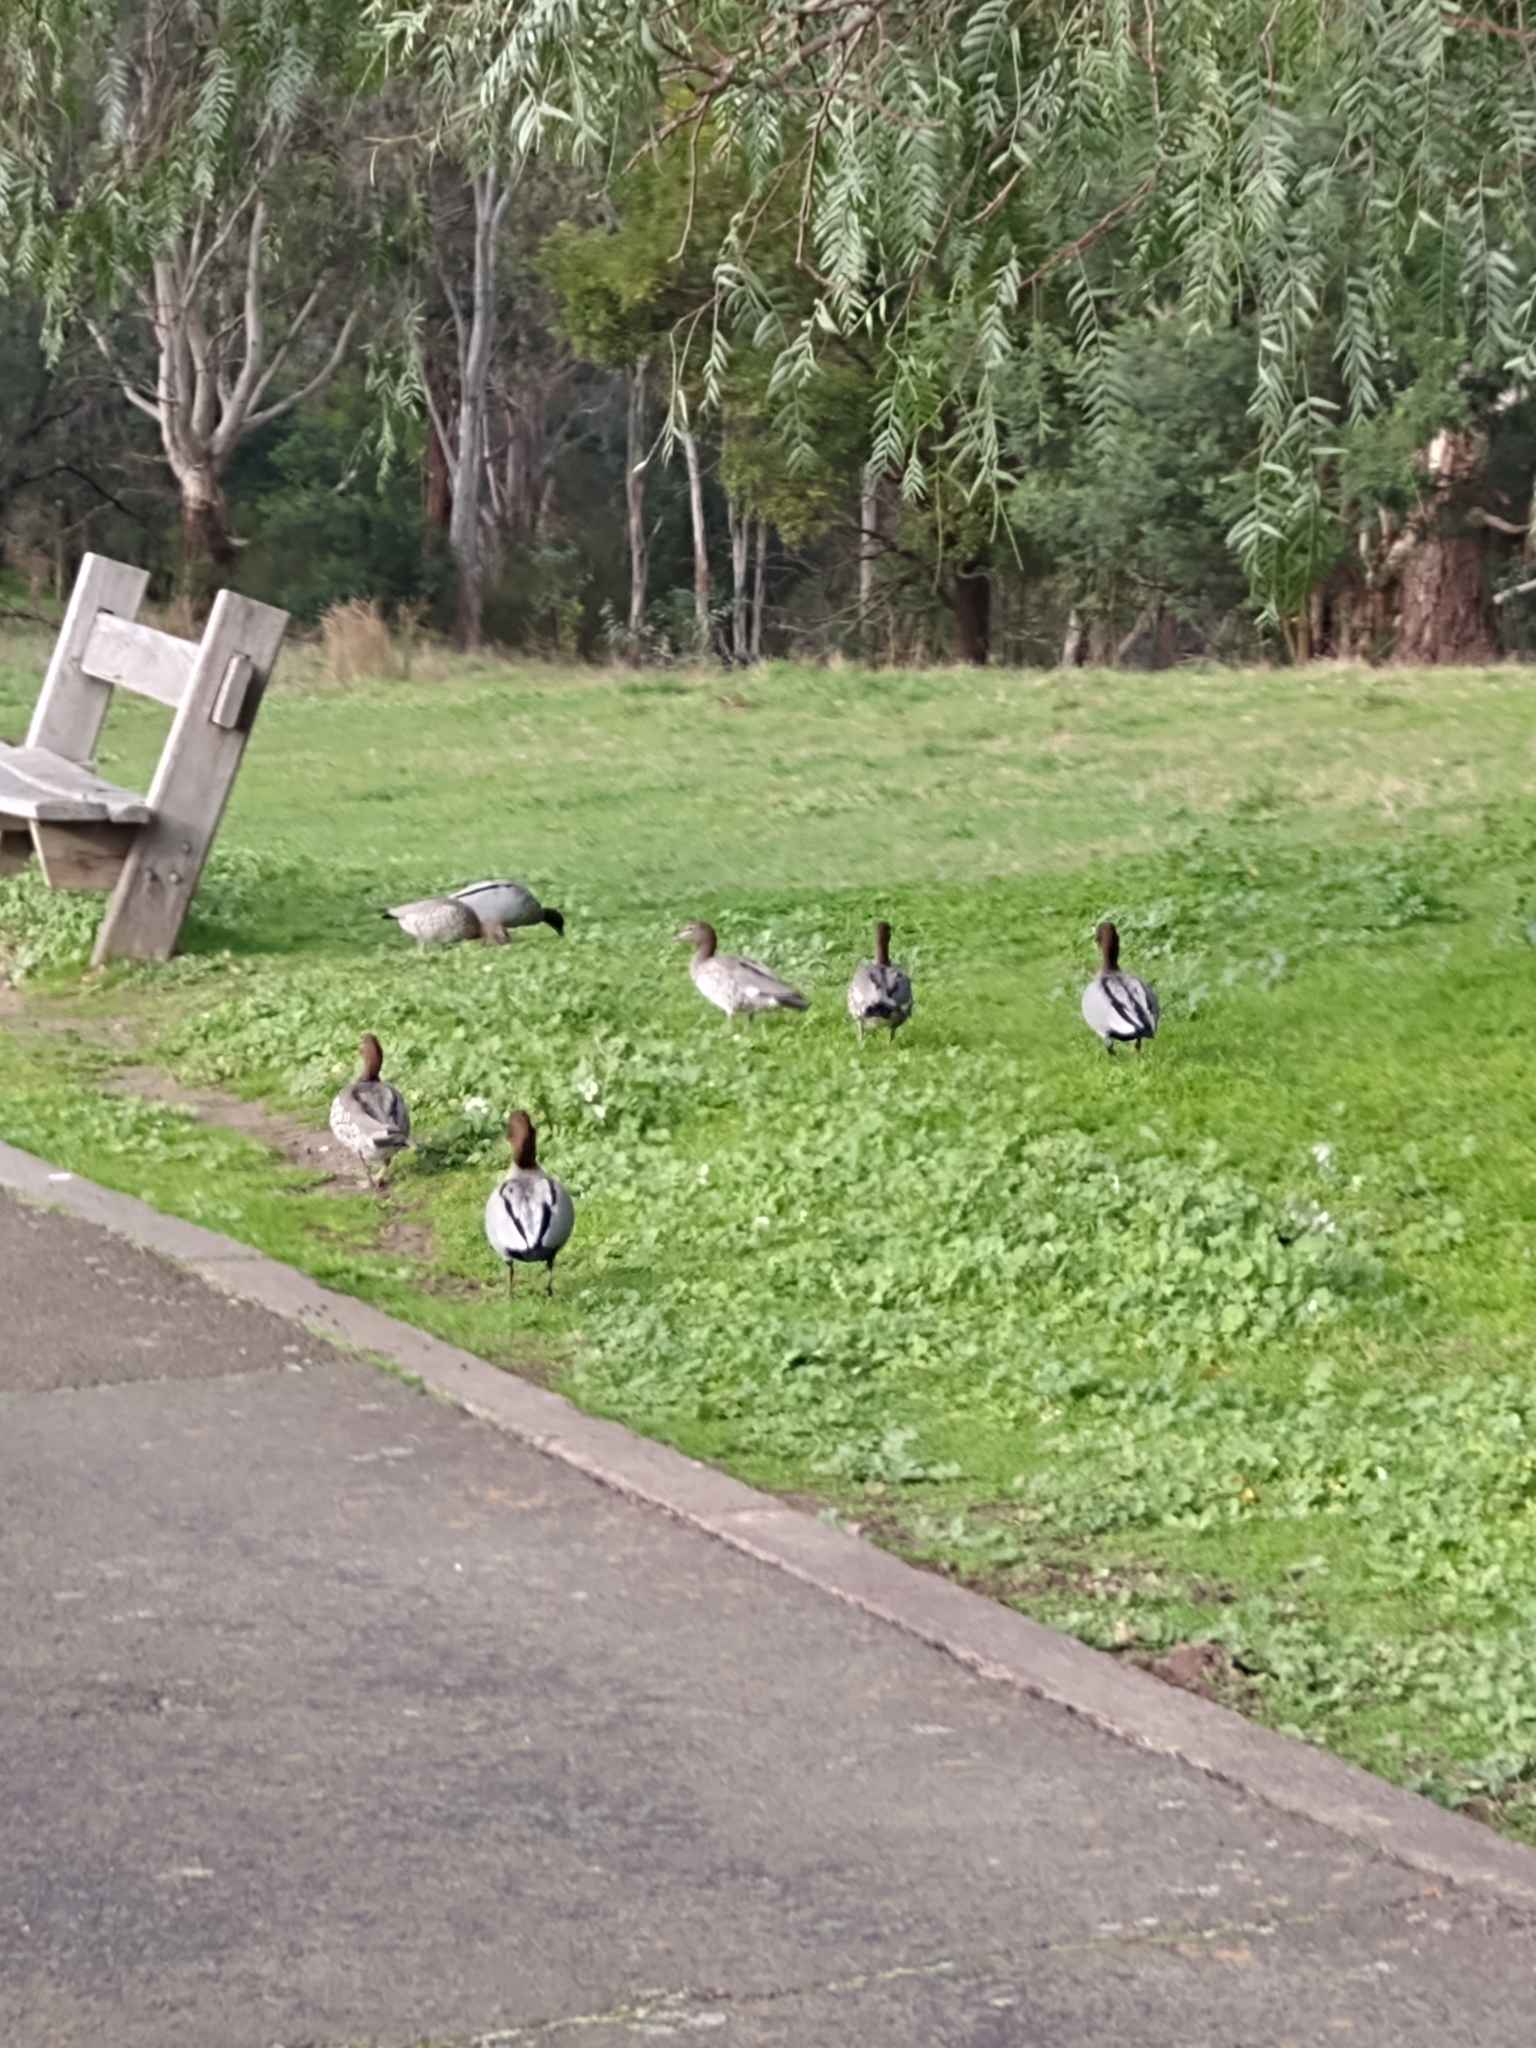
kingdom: Animalia
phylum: Chordata
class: Aves
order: Anseriformes
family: Anatidae
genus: Chenonetta
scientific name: Chenonetta jubata
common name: Maned duck
